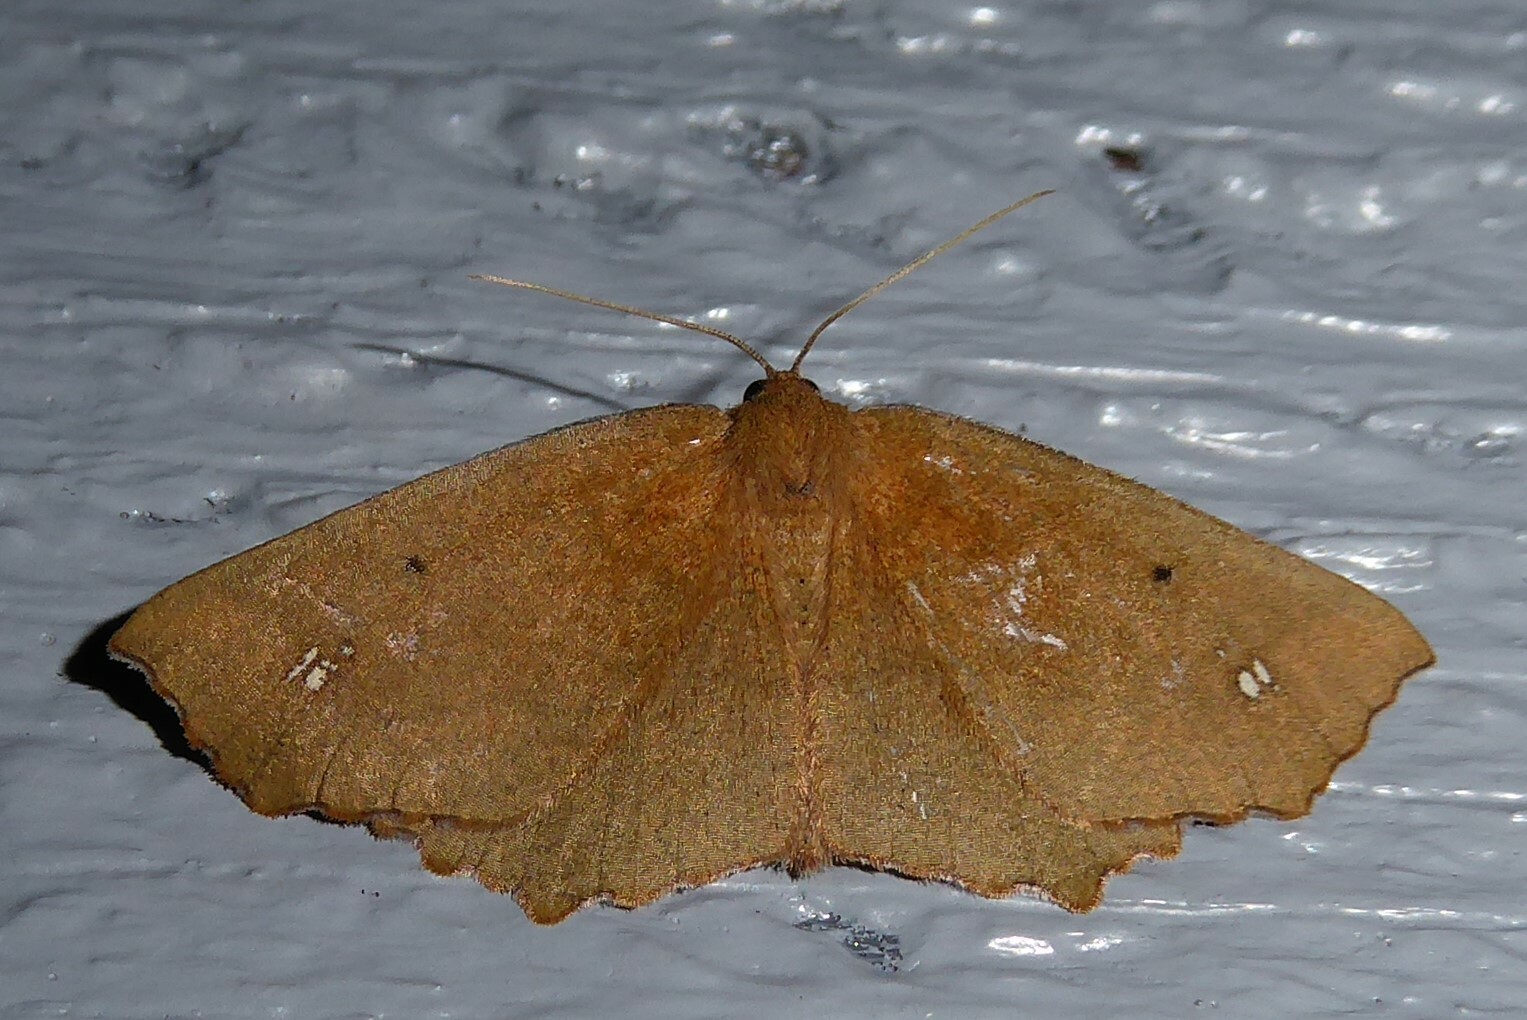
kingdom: Animalia
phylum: Arthropoda
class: Insecta
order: Lepidoptera
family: Geometridae
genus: Xyridacma
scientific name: Xyridacma ustaria
